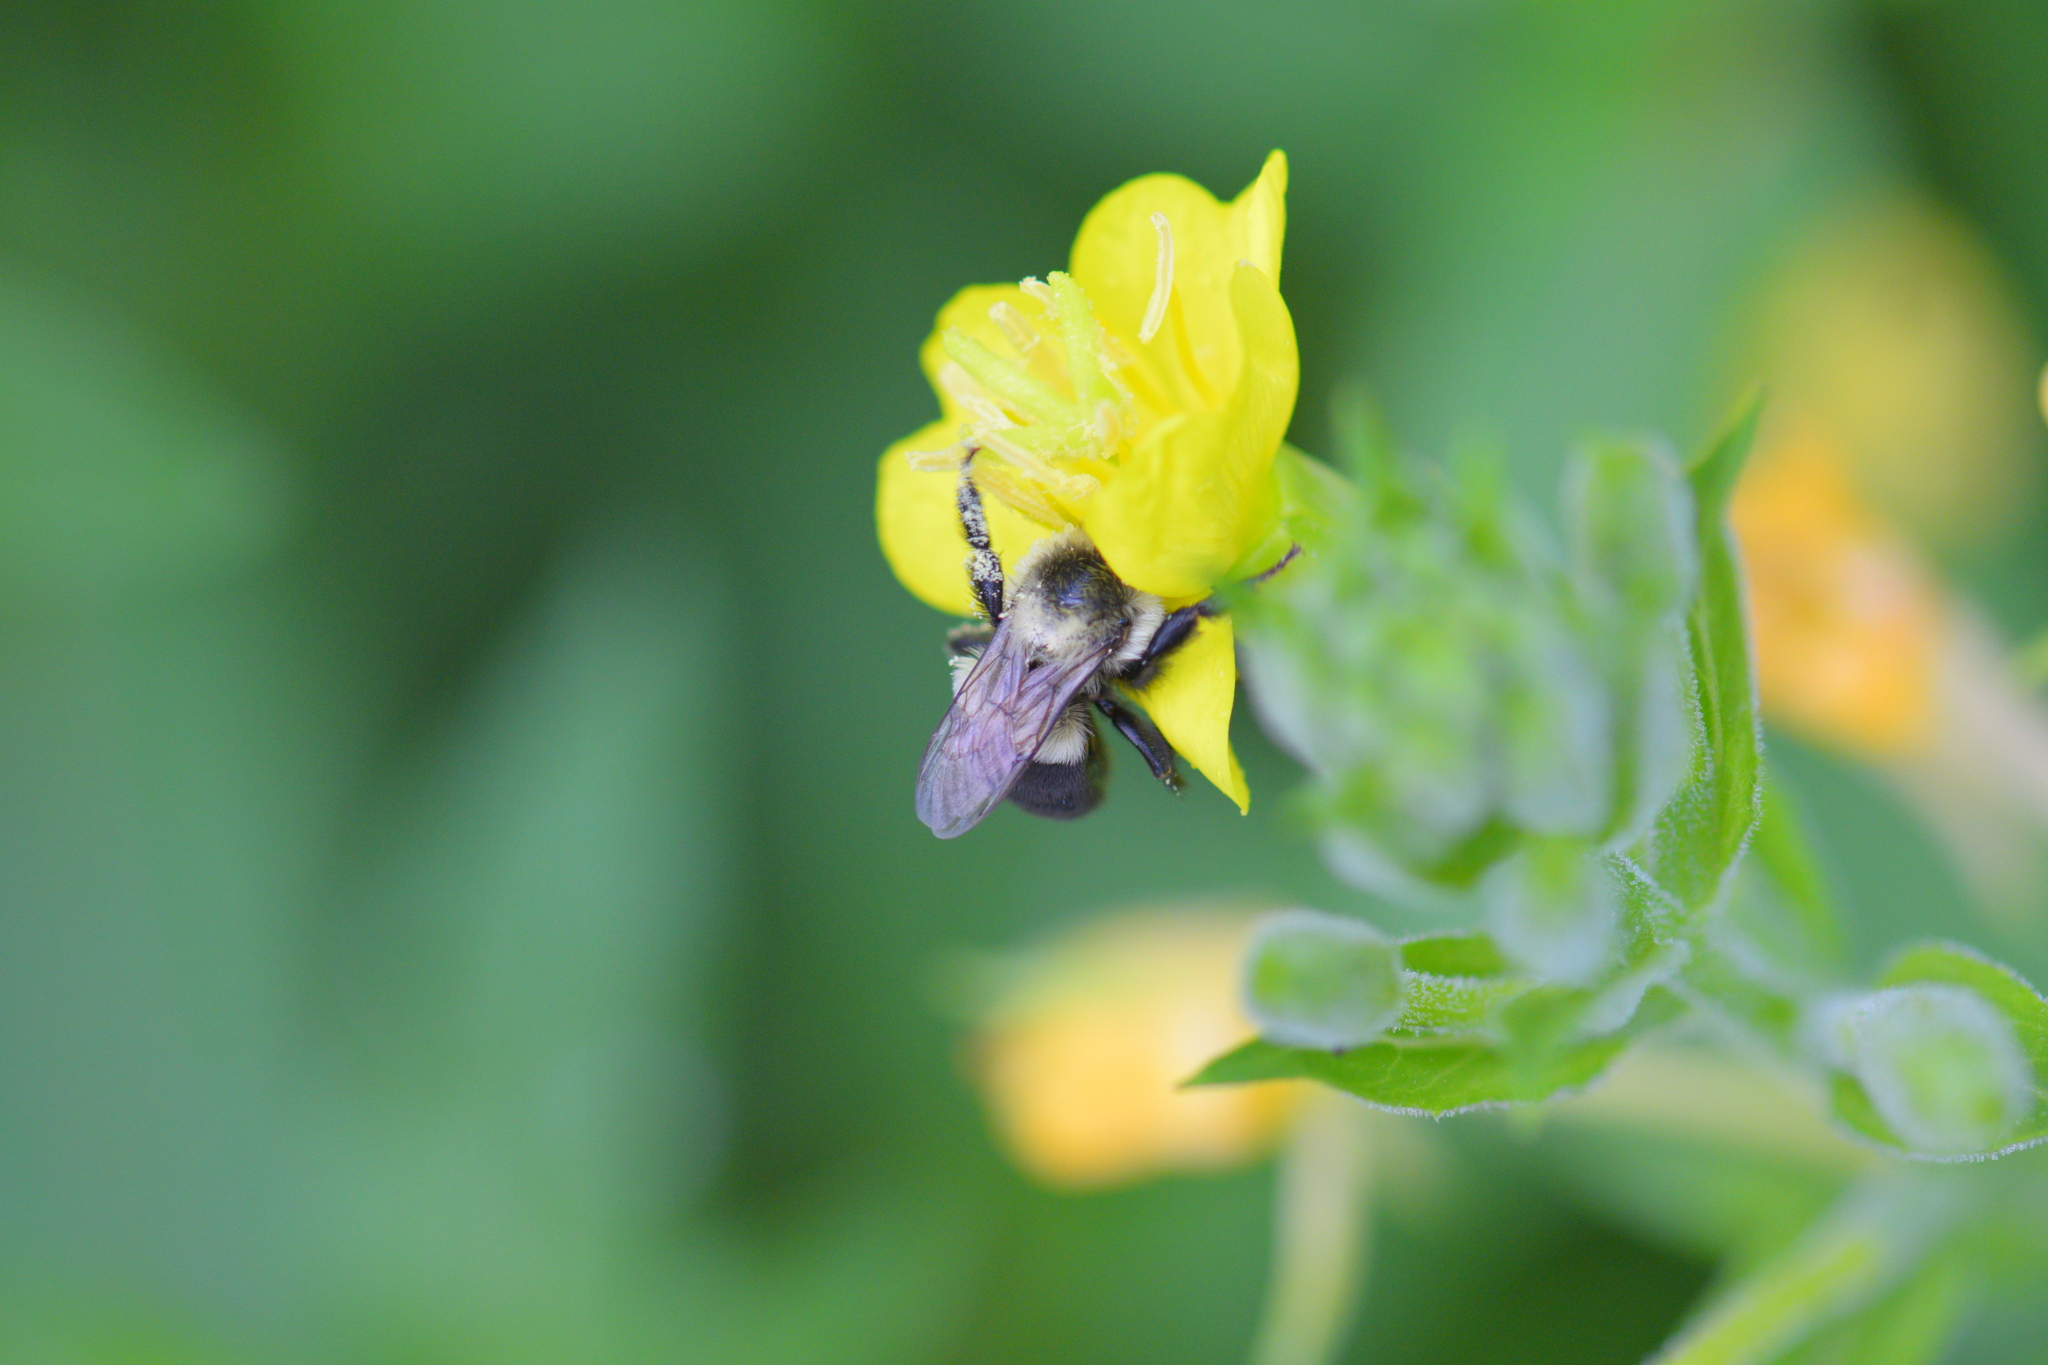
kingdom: Animalia
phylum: Arthropoda
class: Insecta
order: Hymenoptera
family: Apidae
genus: Bombus
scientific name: Bombus impatiens
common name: Common eastern bumble bee
